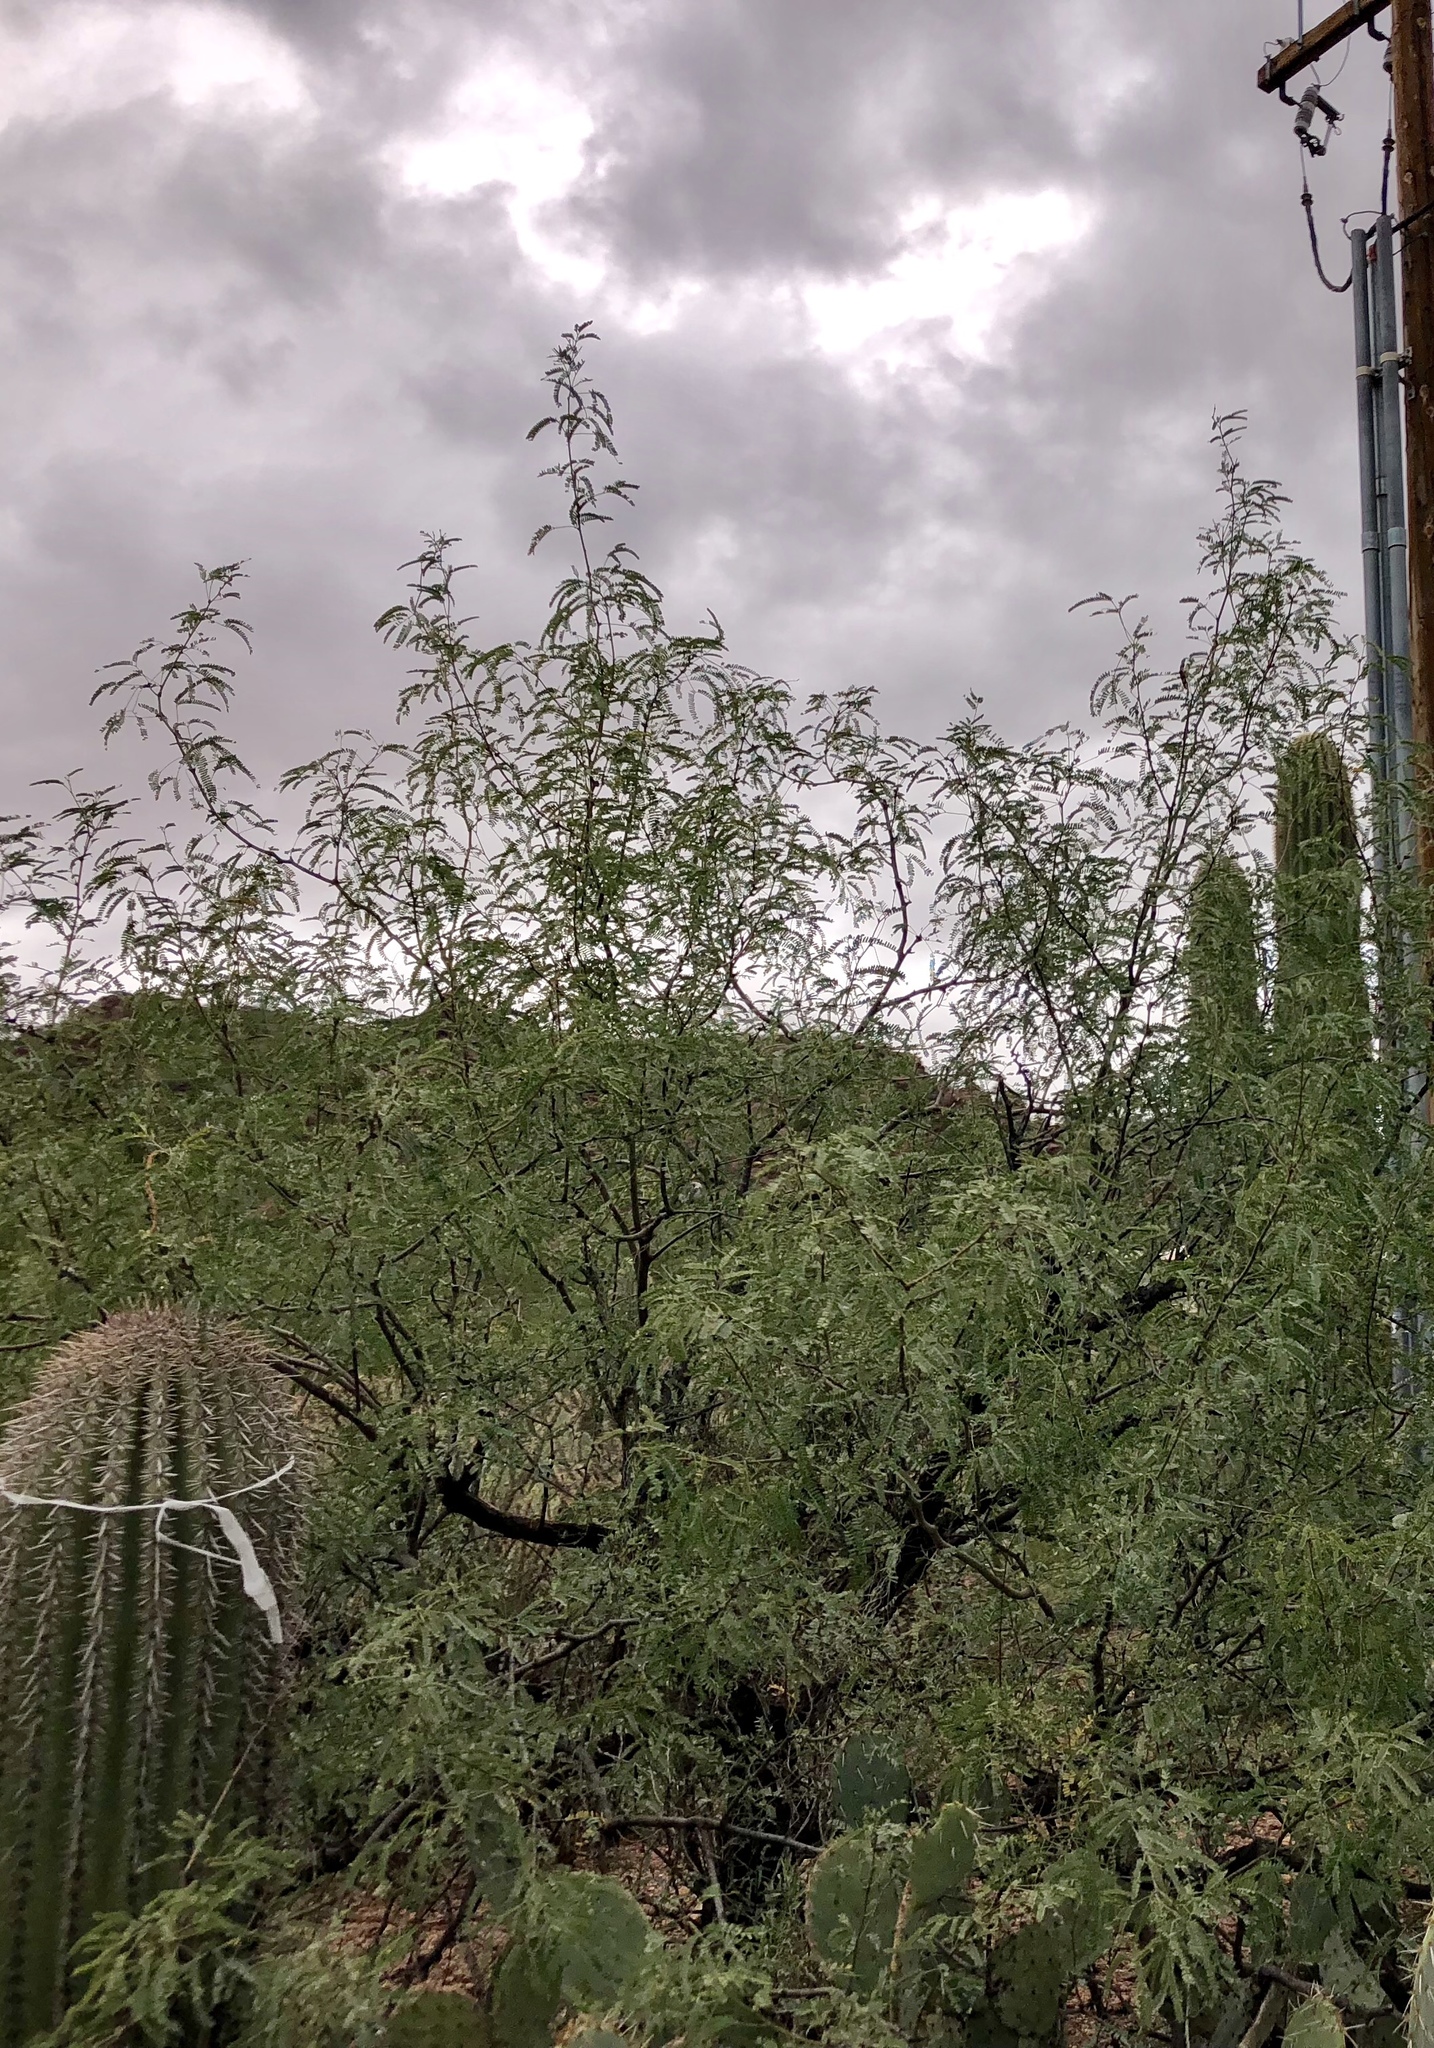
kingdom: Plantae
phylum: Tracheophyta
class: Magnoliopsida
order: Fabales
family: Fabaceae
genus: Prosopis
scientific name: Prosopis velutina
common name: Velvet mesquite
